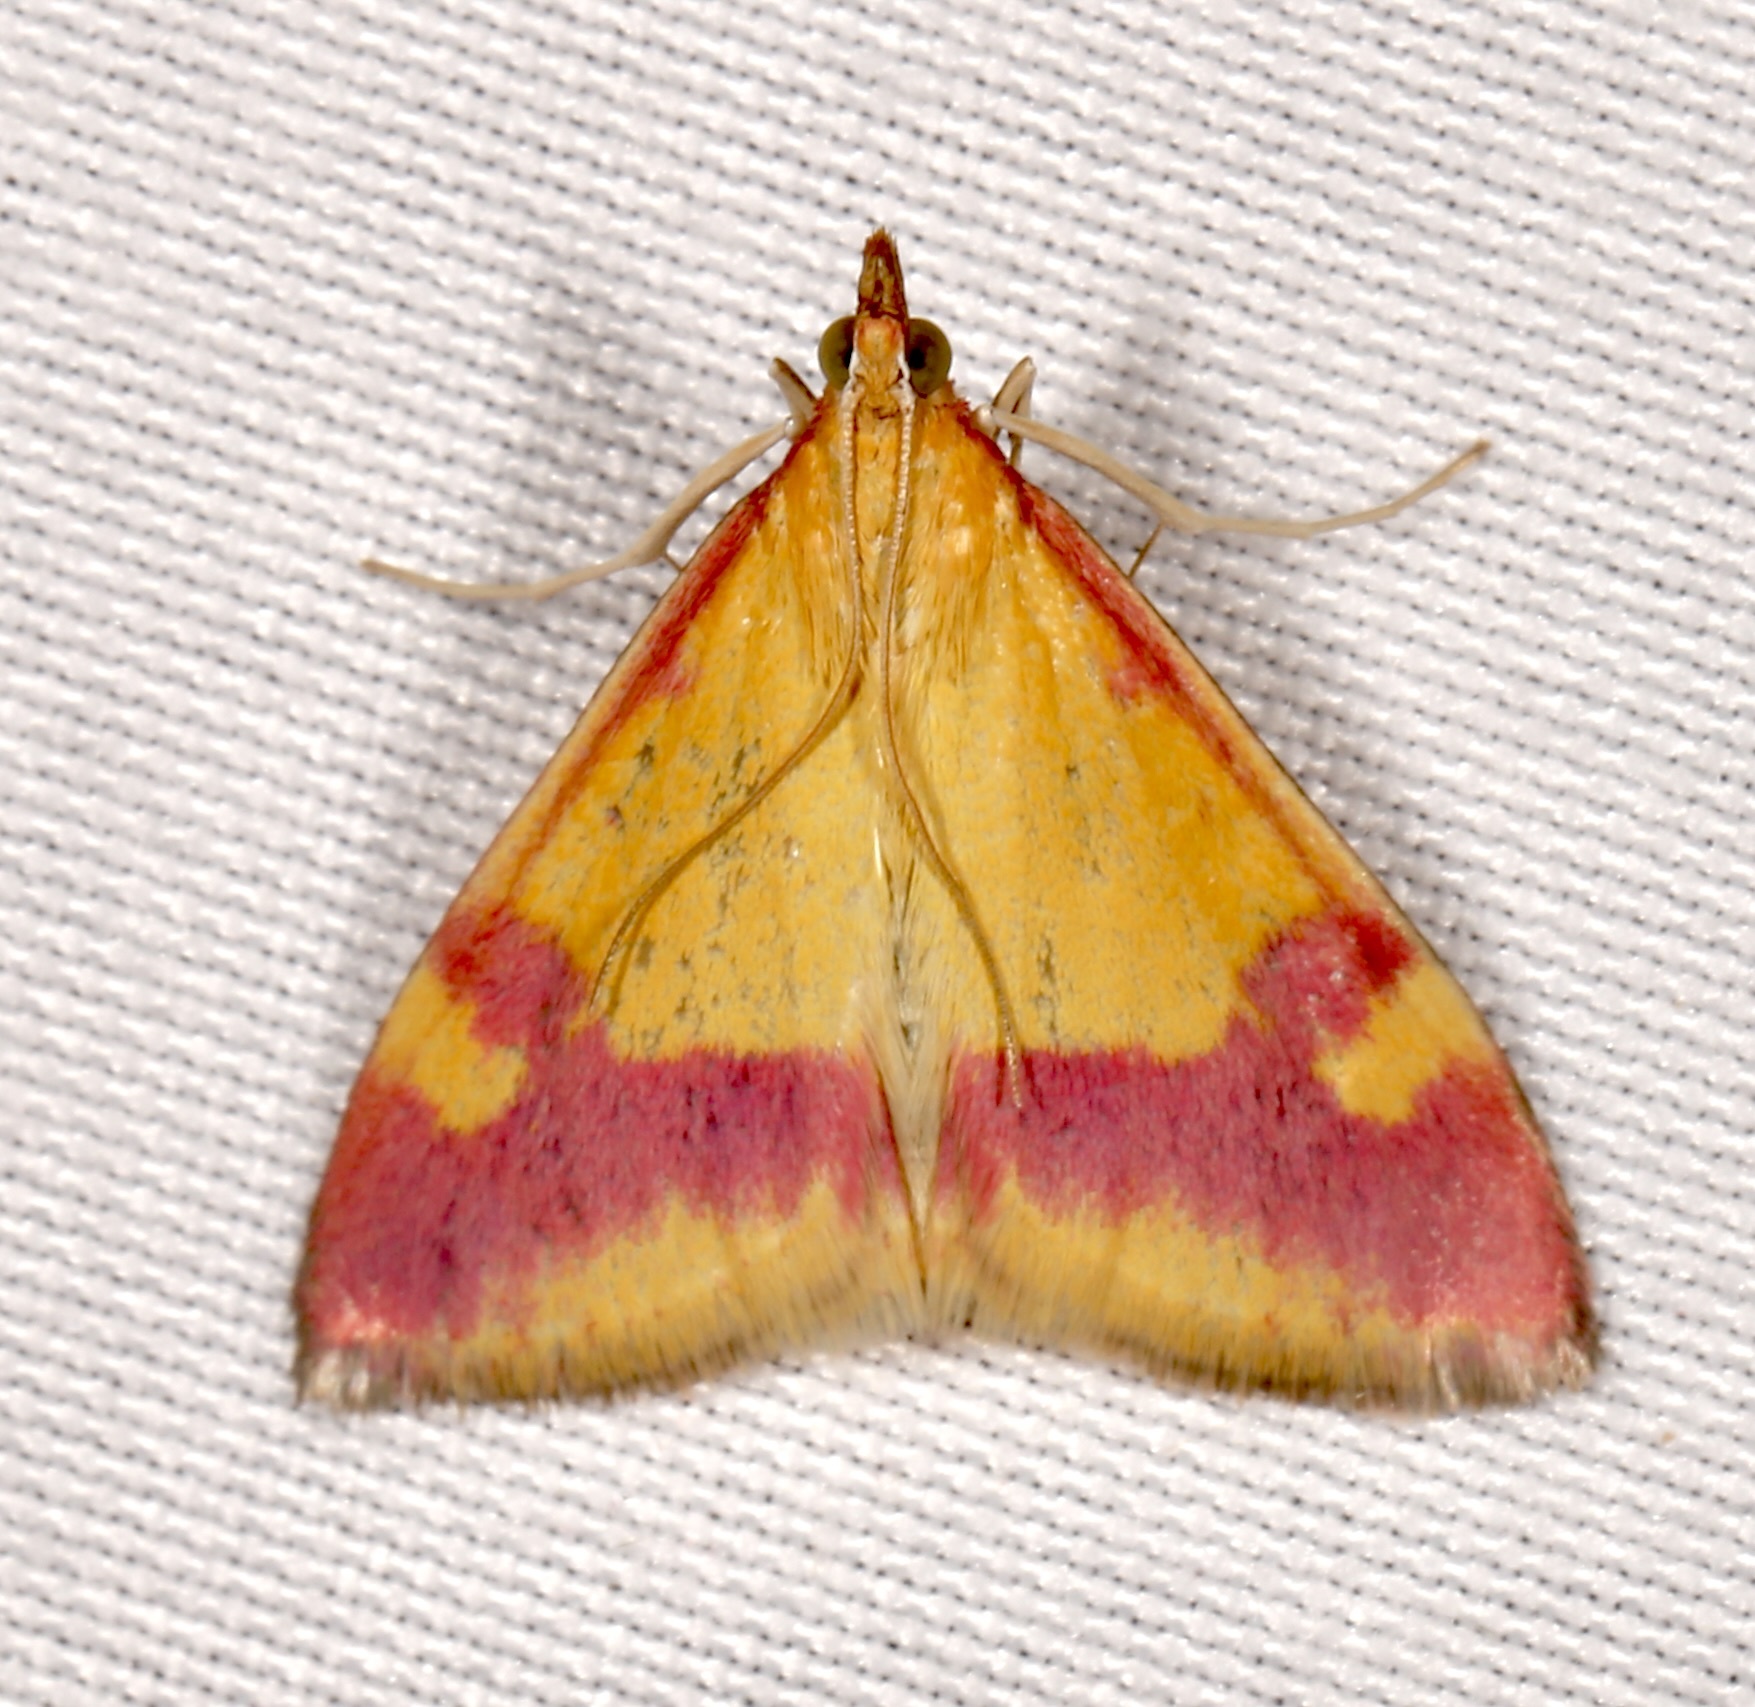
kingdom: Animalia
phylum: Arthropoda
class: Insecta
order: Lepidoptera
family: Crambidae
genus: Pyrausta
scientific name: Pyrausta scurralis
